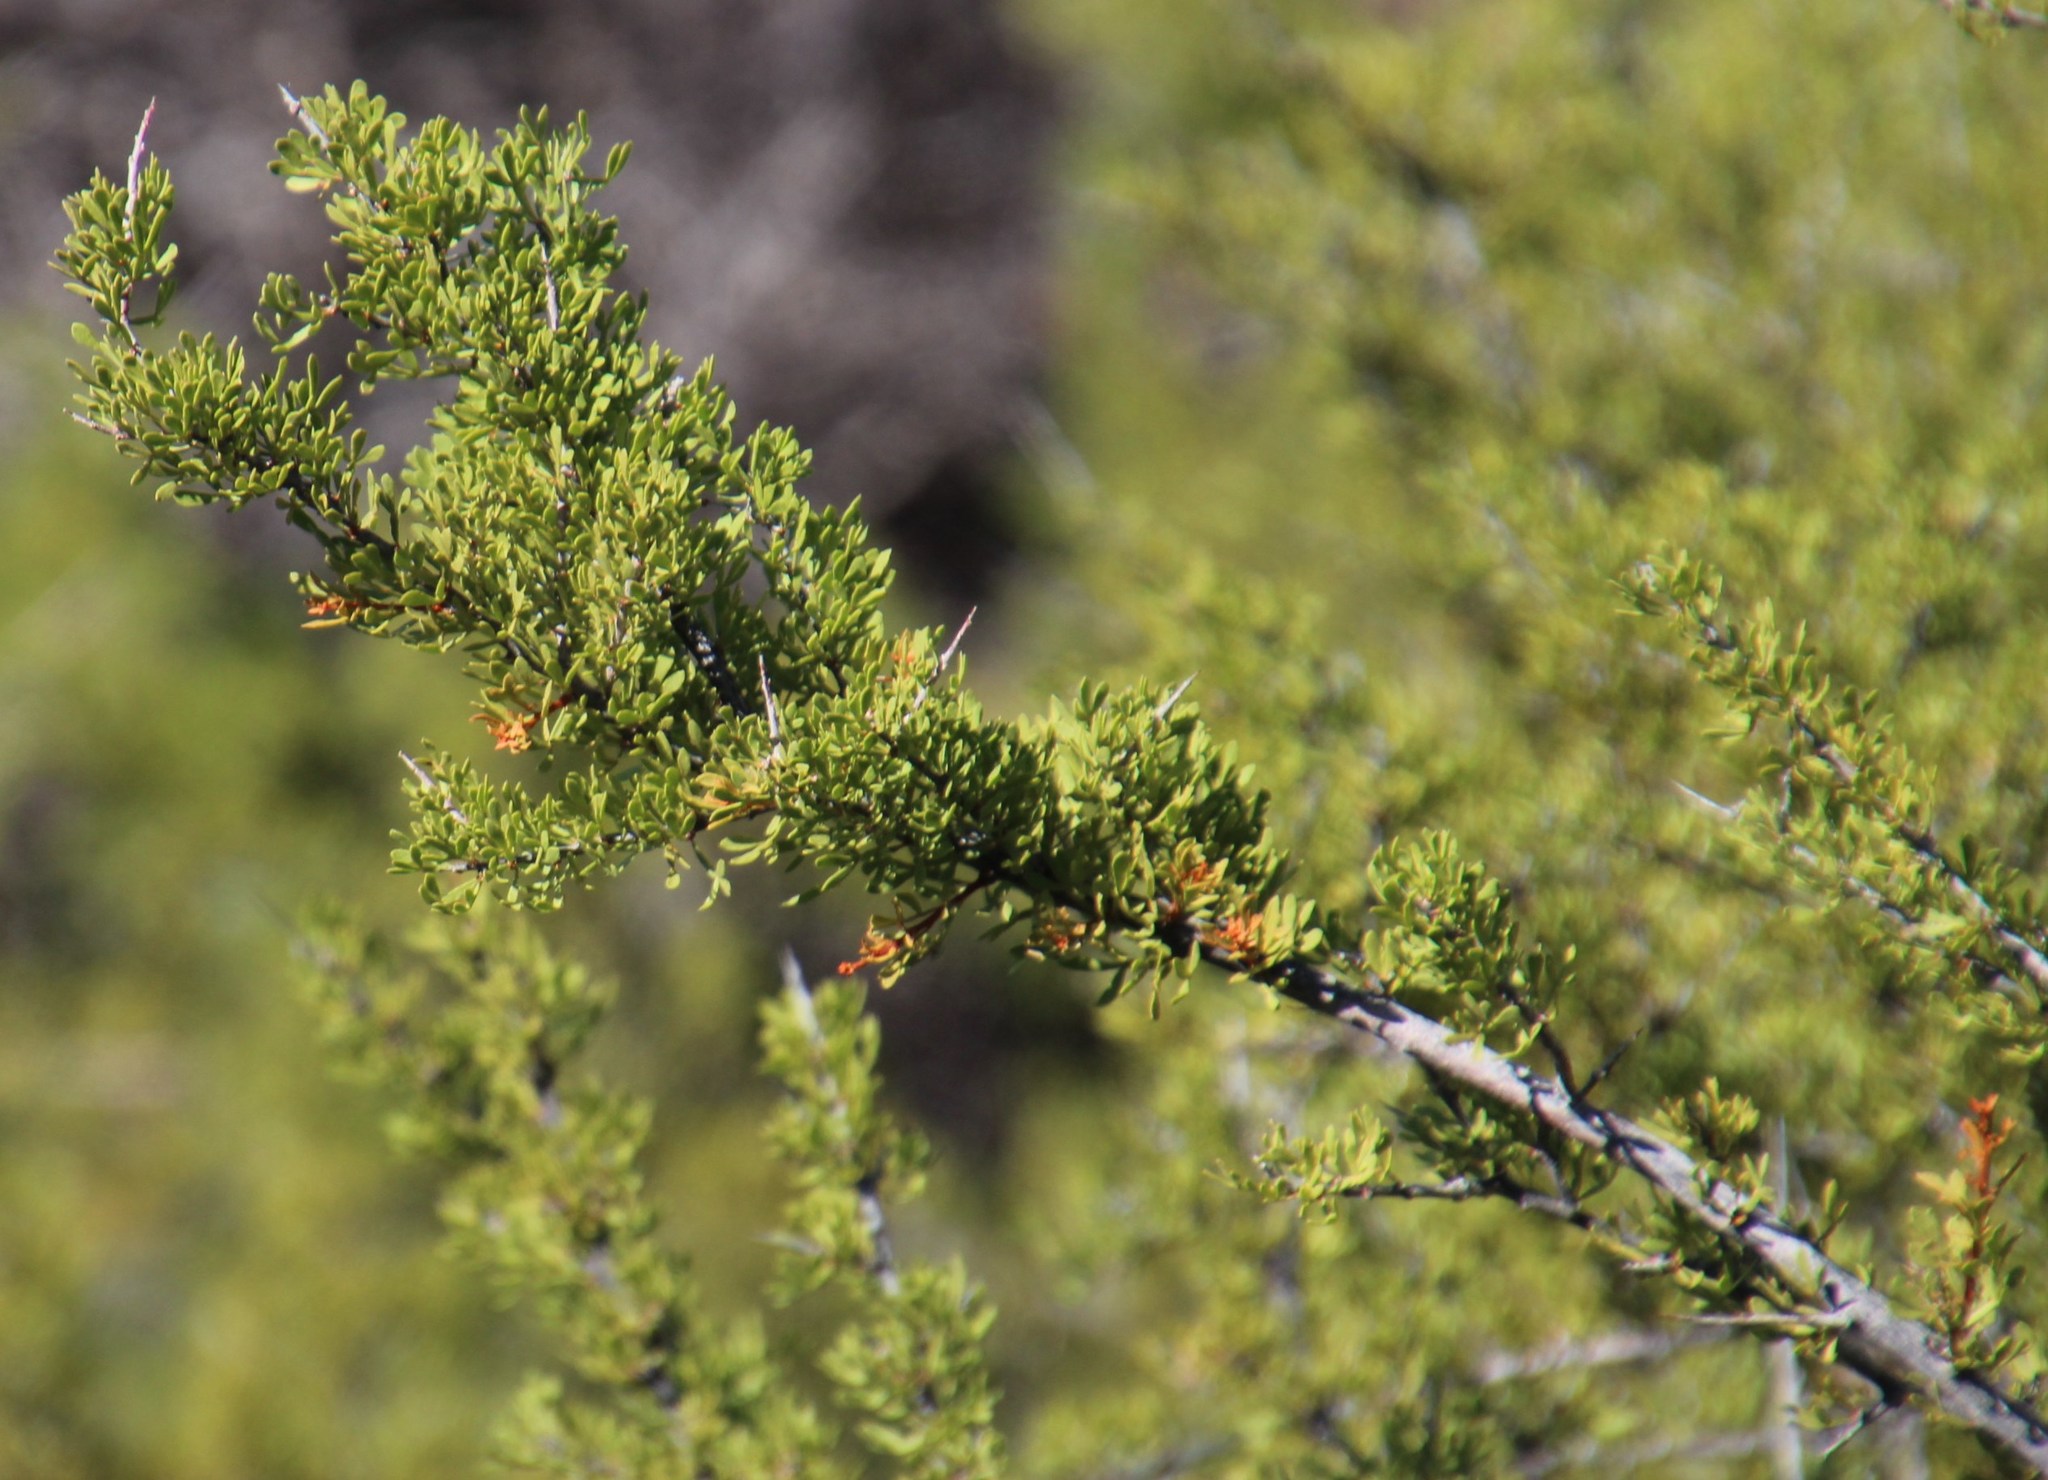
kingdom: Plantae
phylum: Tracheophyta
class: Magnoliopsida
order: Sapindales
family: Anacardiaceae
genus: Searsia
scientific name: Searsia horrida
